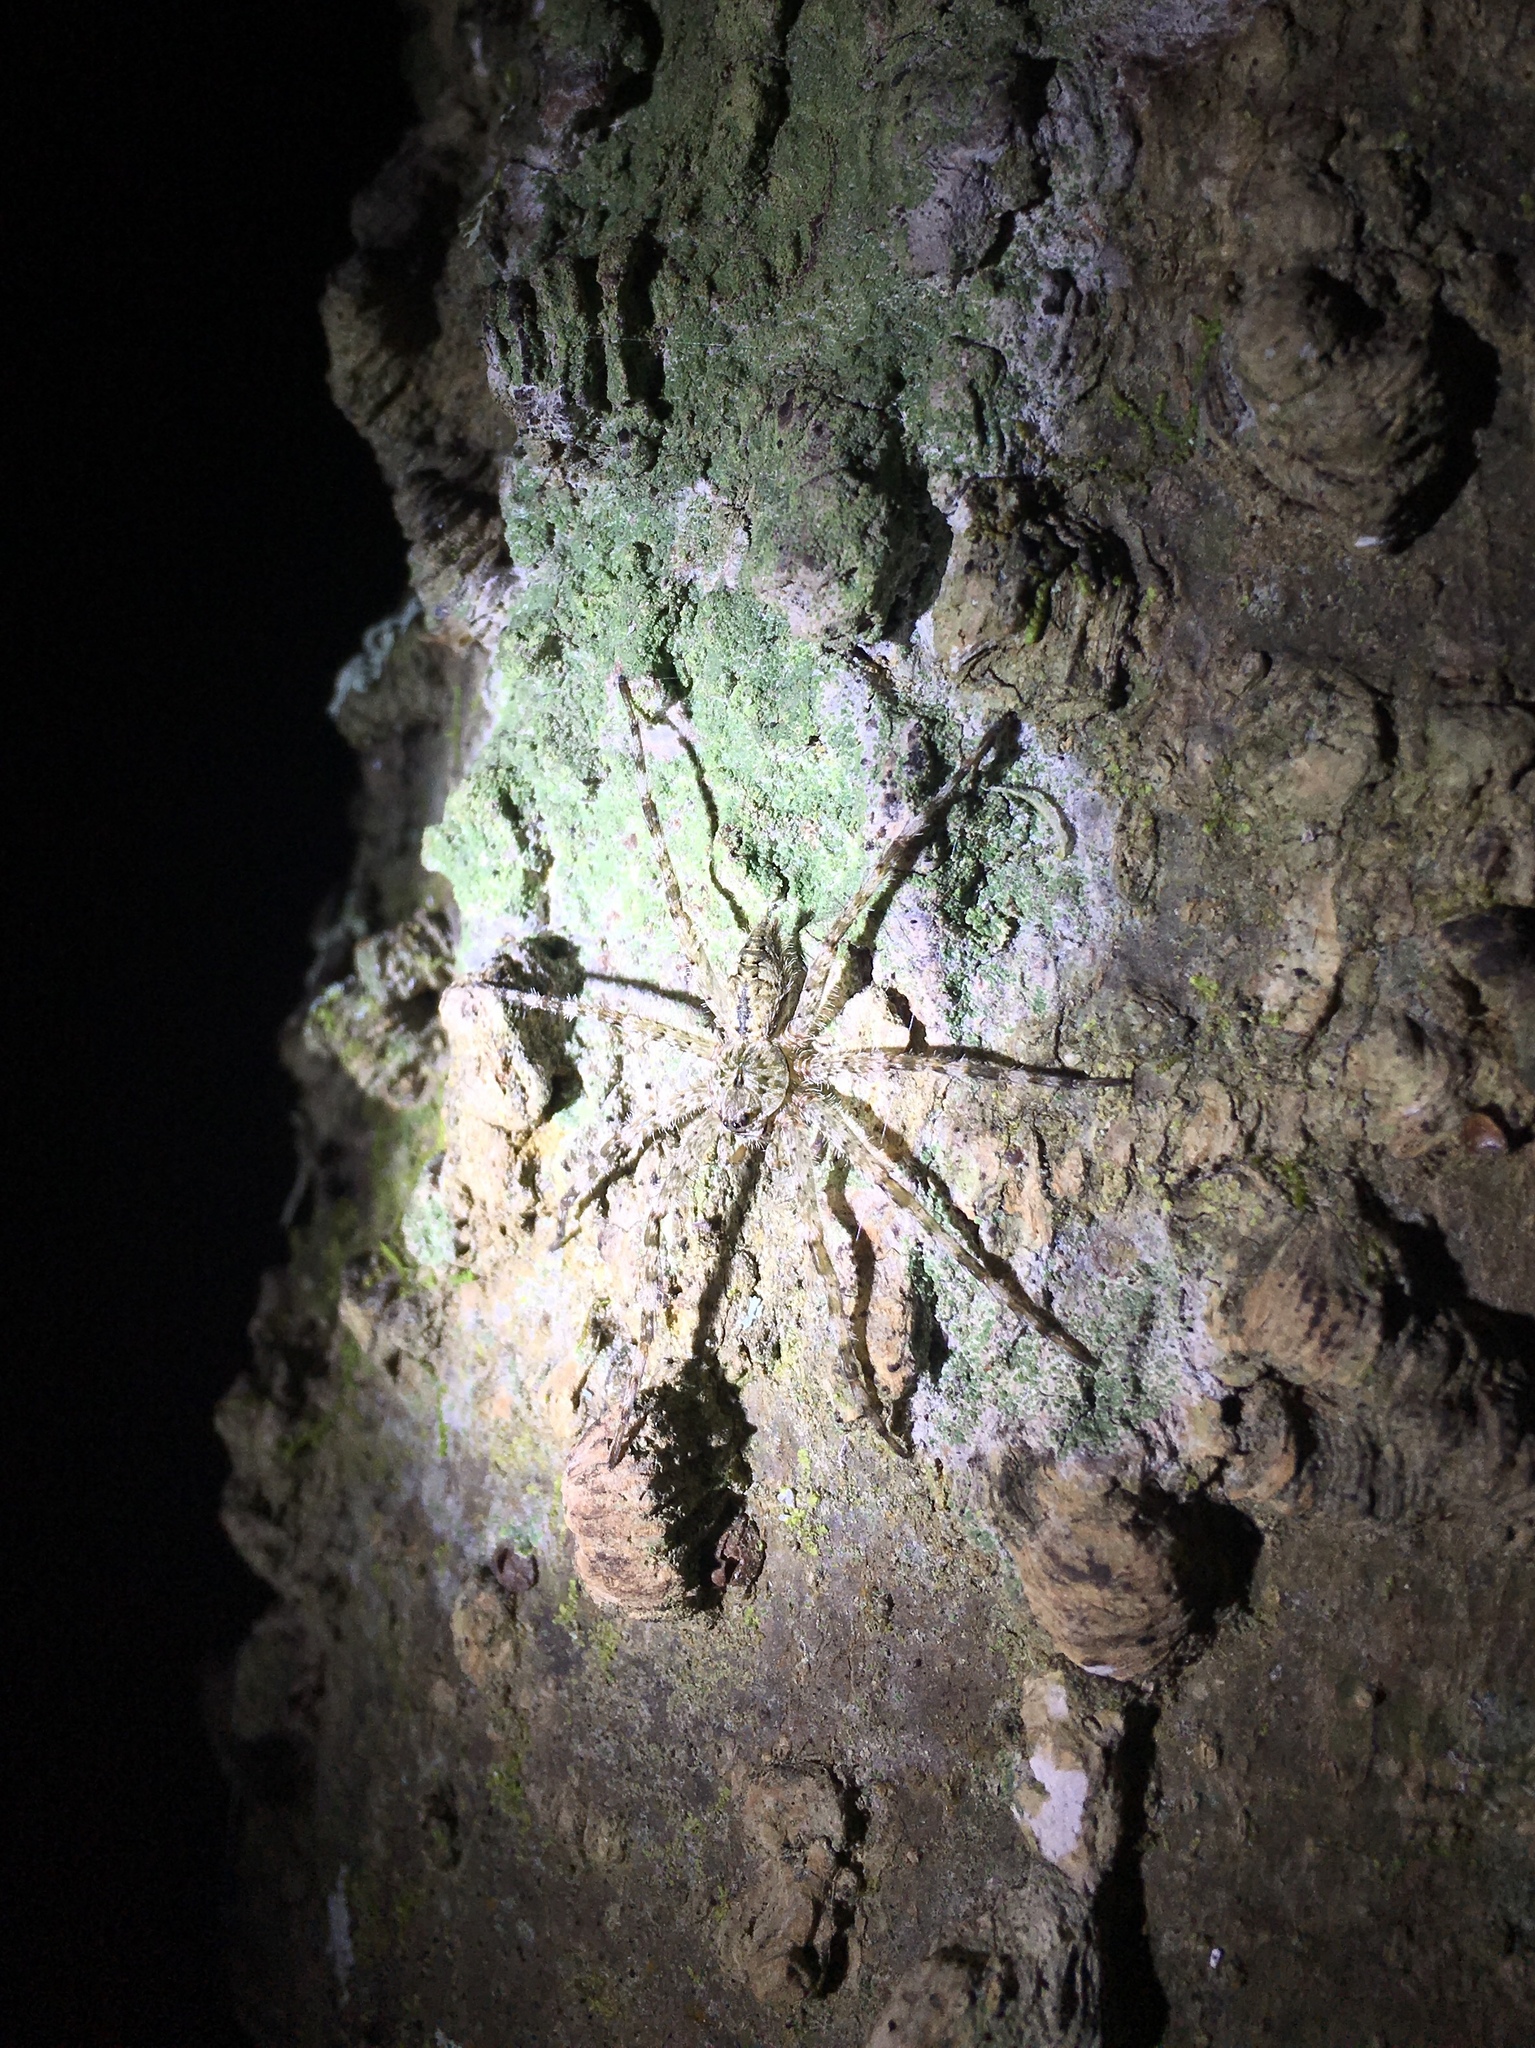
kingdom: Animalia
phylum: Arthropoda
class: Arachnida
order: Araneae
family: Pisauridae
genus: Dolomedes
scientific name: Dolomedes albineus
